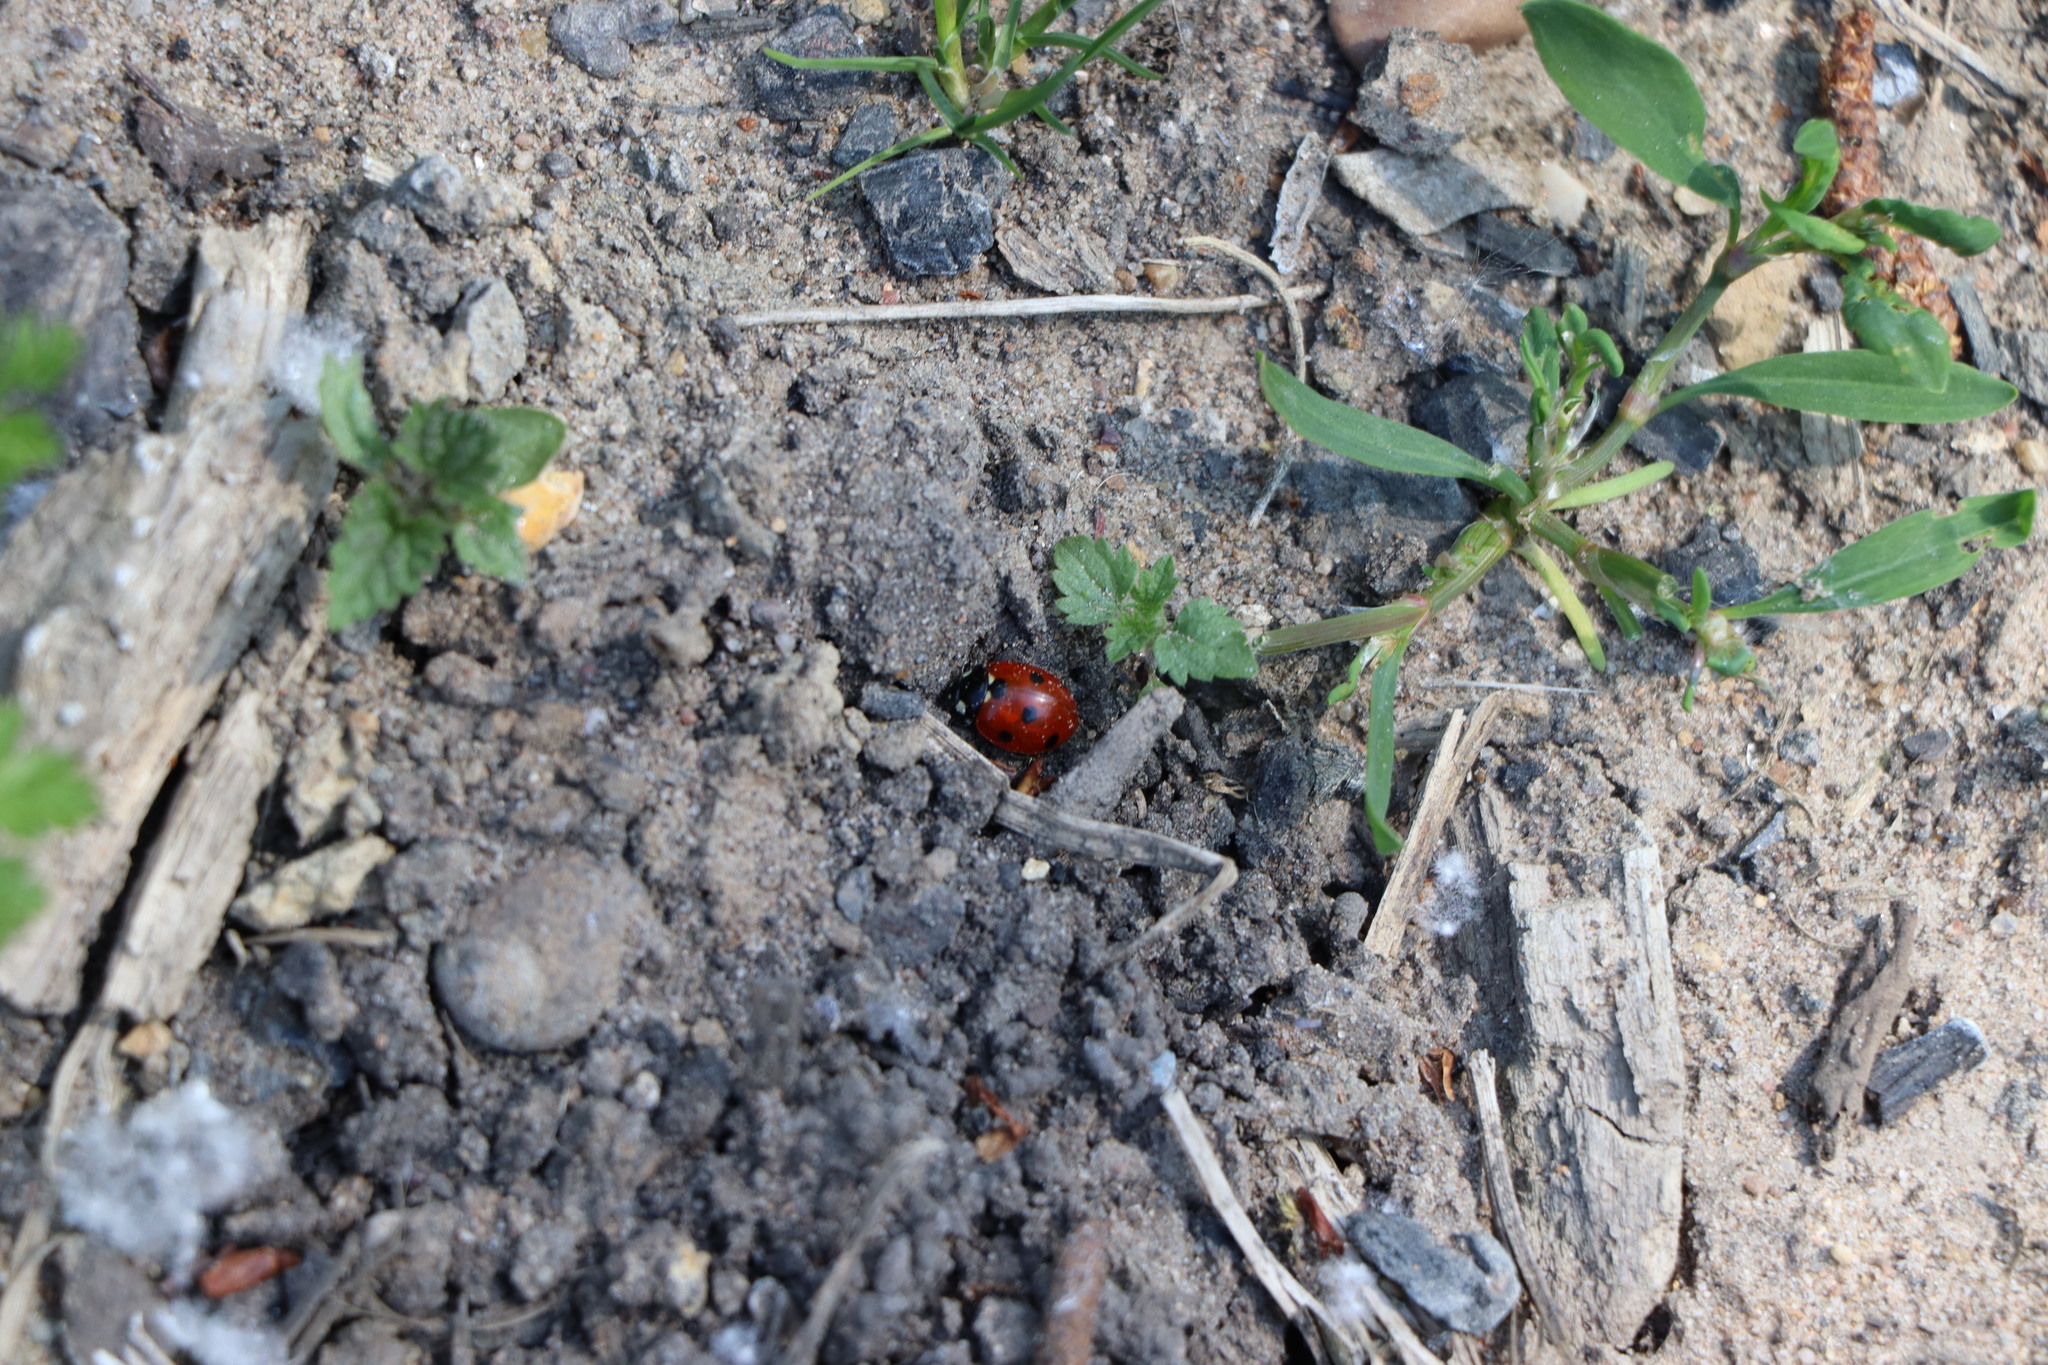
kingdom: Animalia
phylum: Arthropoda
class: Insecta
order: Coleoptera
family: Coccinellidae
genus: Coccinella
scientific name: Coccinella septempunctata
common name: Sevenspotted lady beetle
